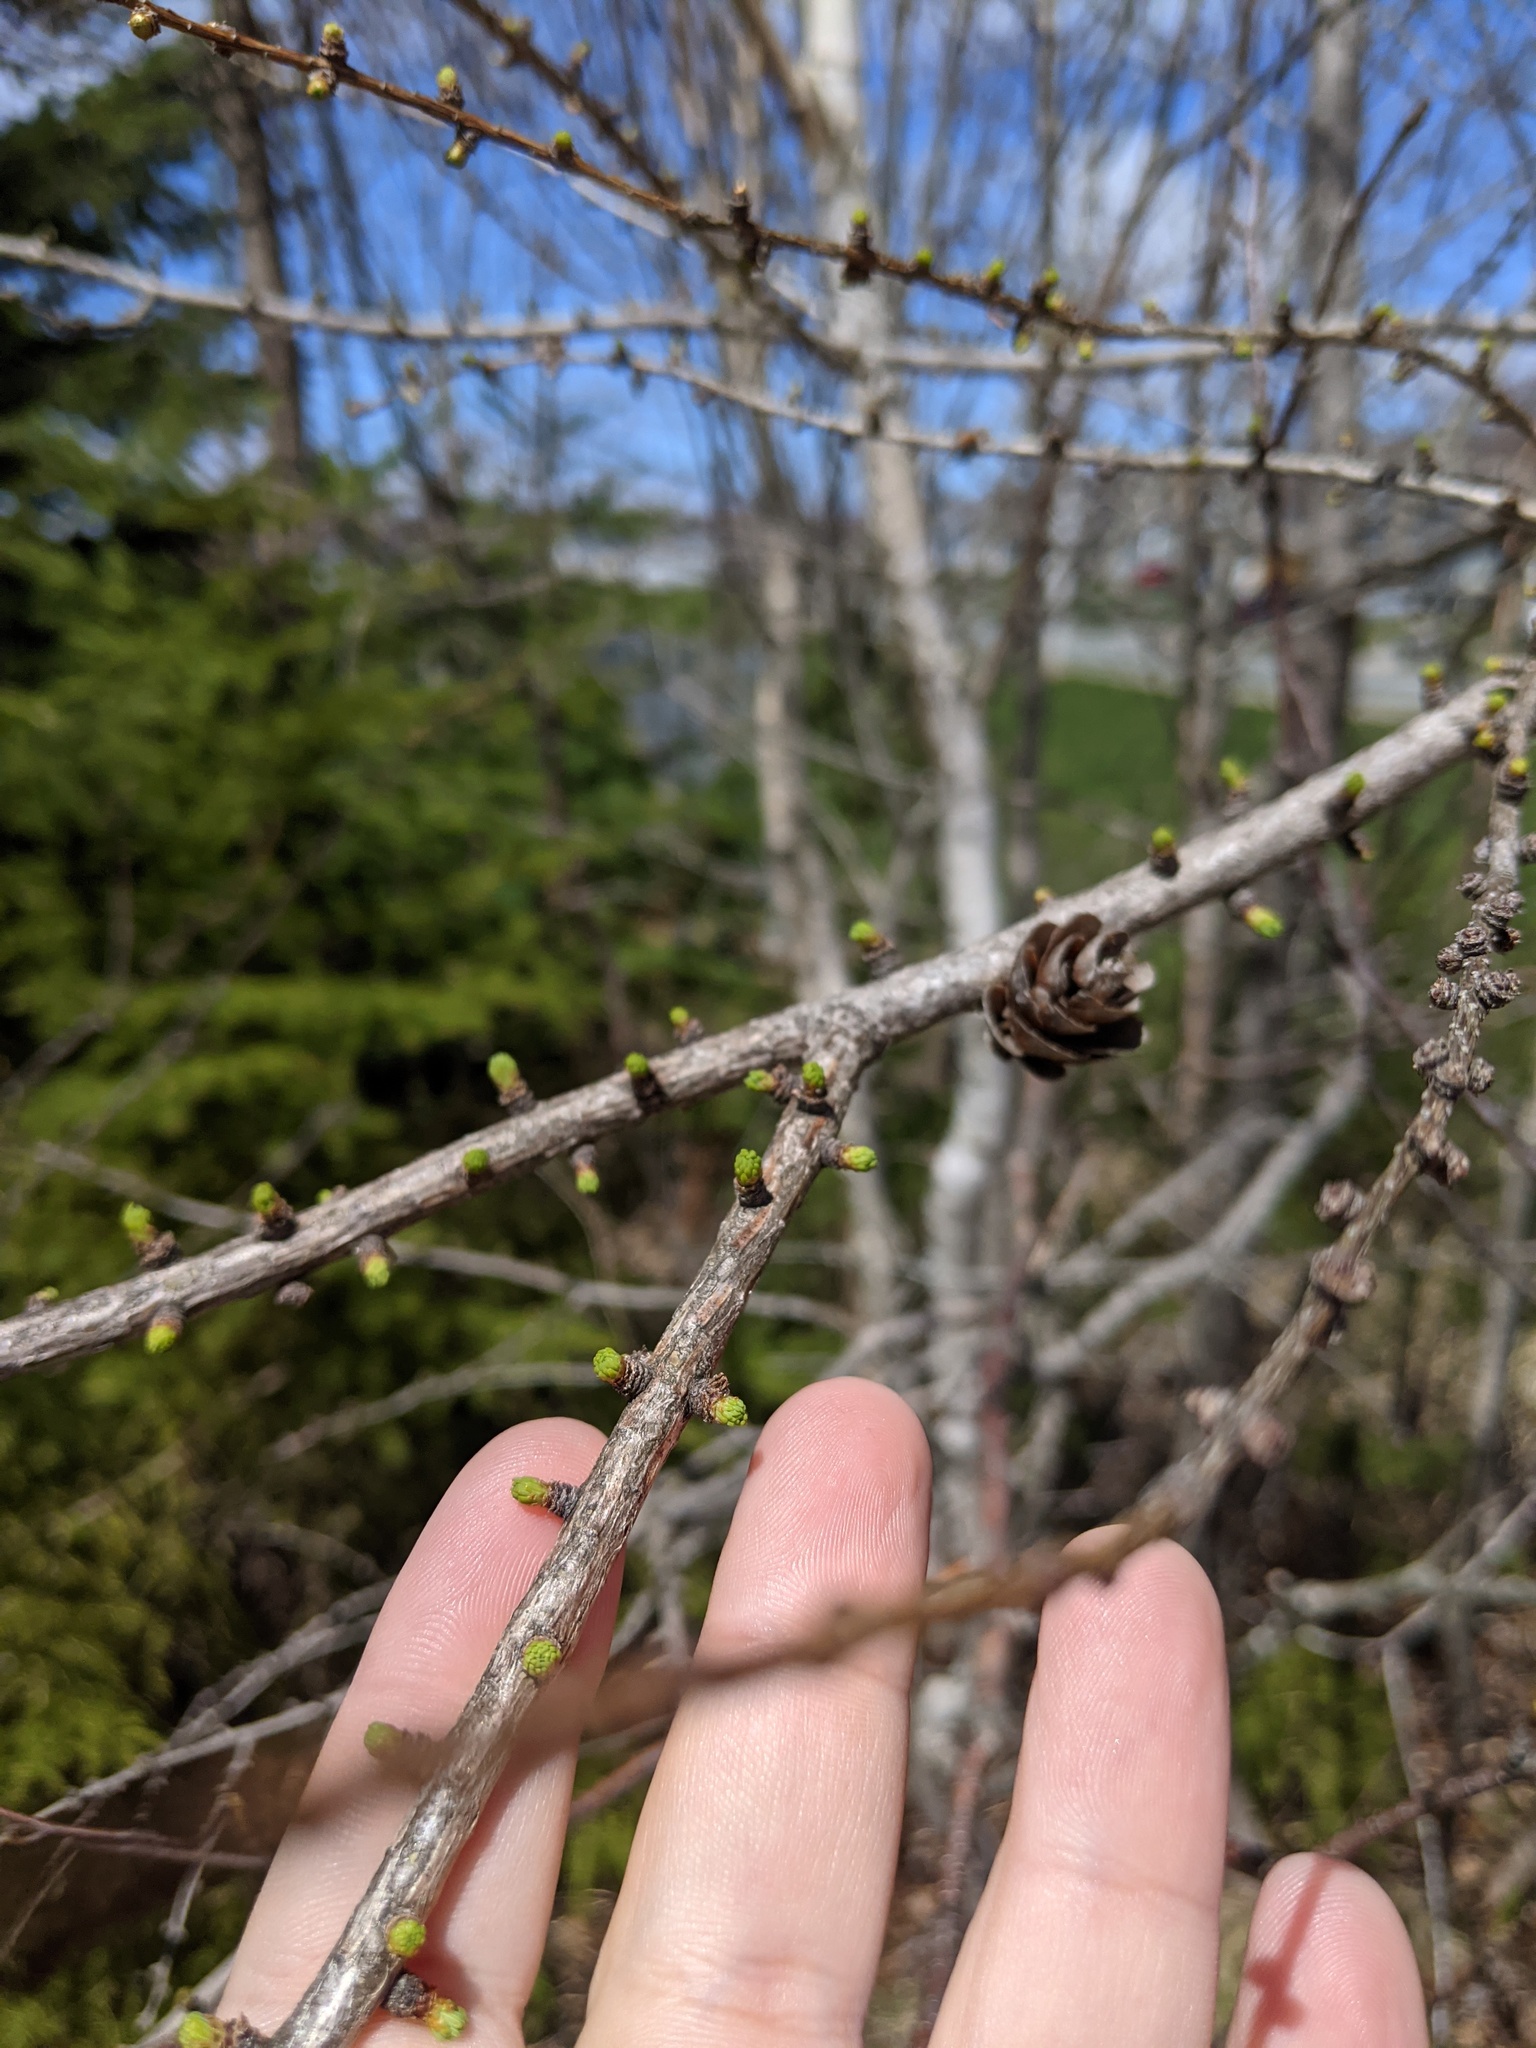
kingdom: Plantae
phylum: Tracheophyta
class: Pinopsida
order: Pinales
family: Pinaceae
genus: Larix
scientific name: Larix laricina
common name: American larch
